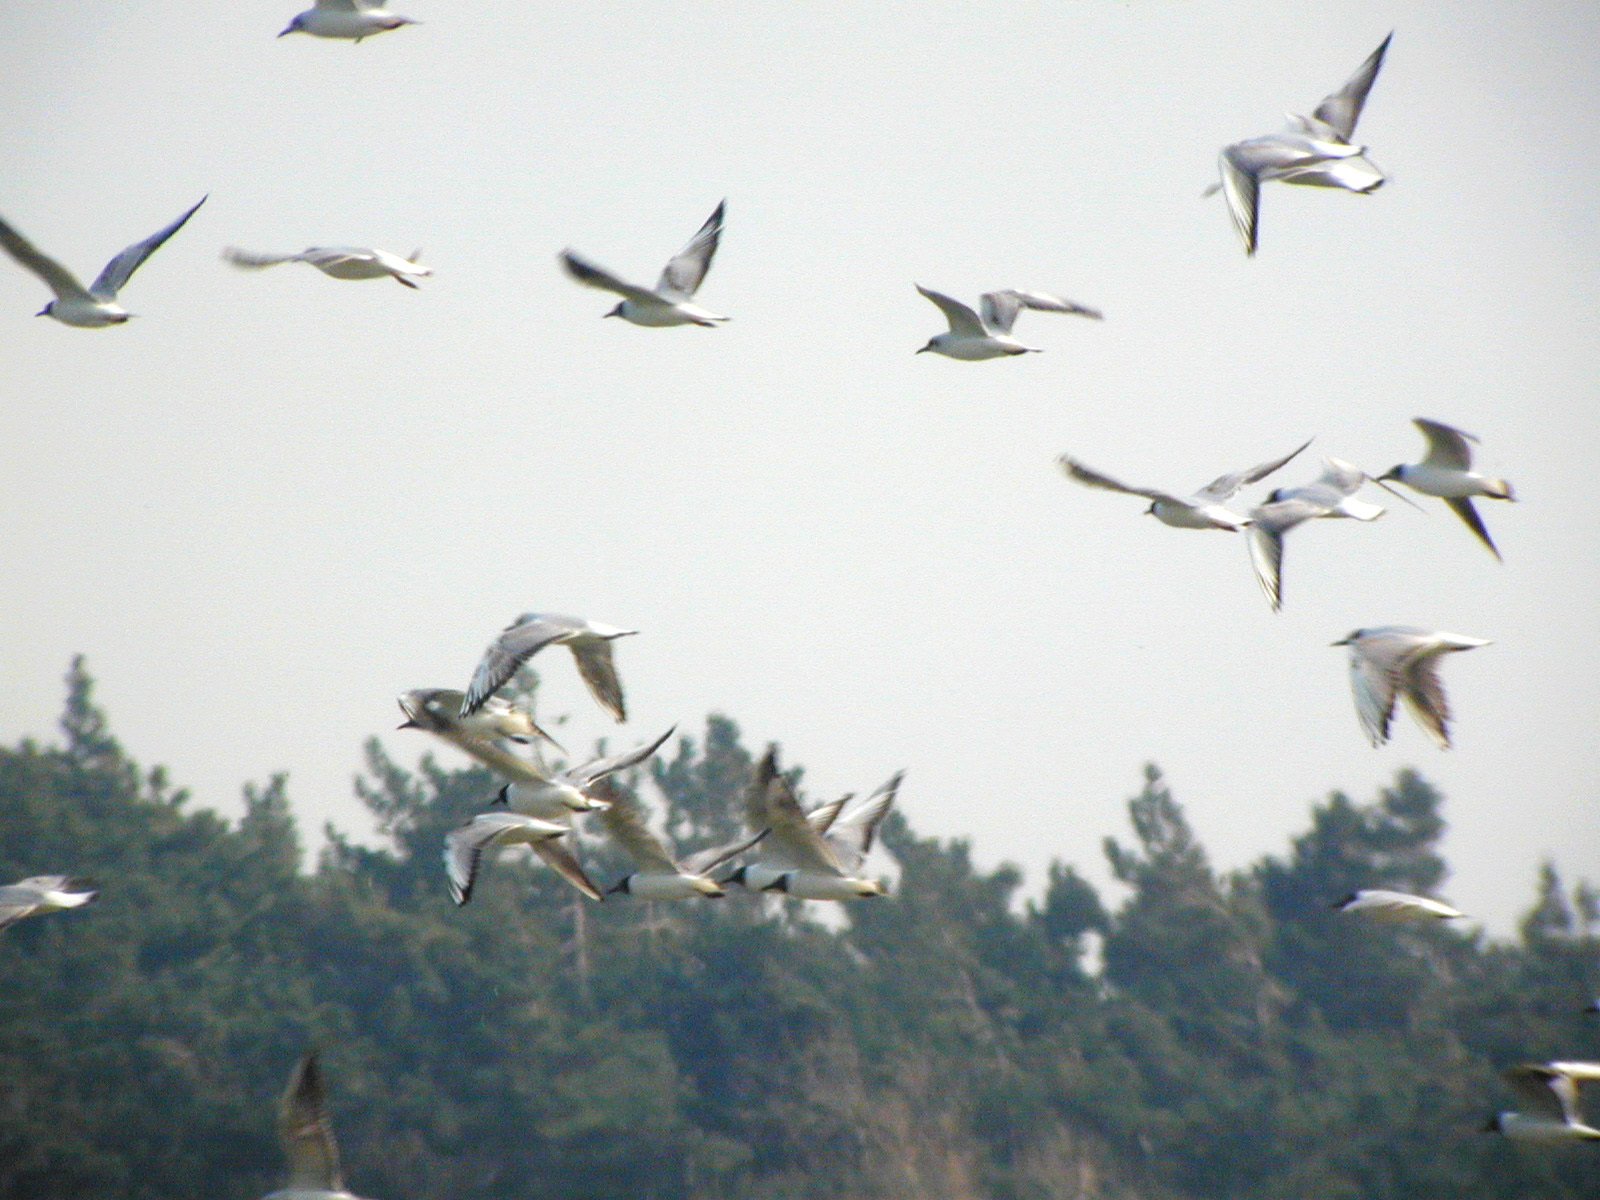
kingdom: Animalia
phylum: Chordata
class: Aves
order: Charadriiformes
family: Laridae
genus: Chroicocephalus
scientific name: Chroicocephalus ridibundus
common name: Black-headed gull
